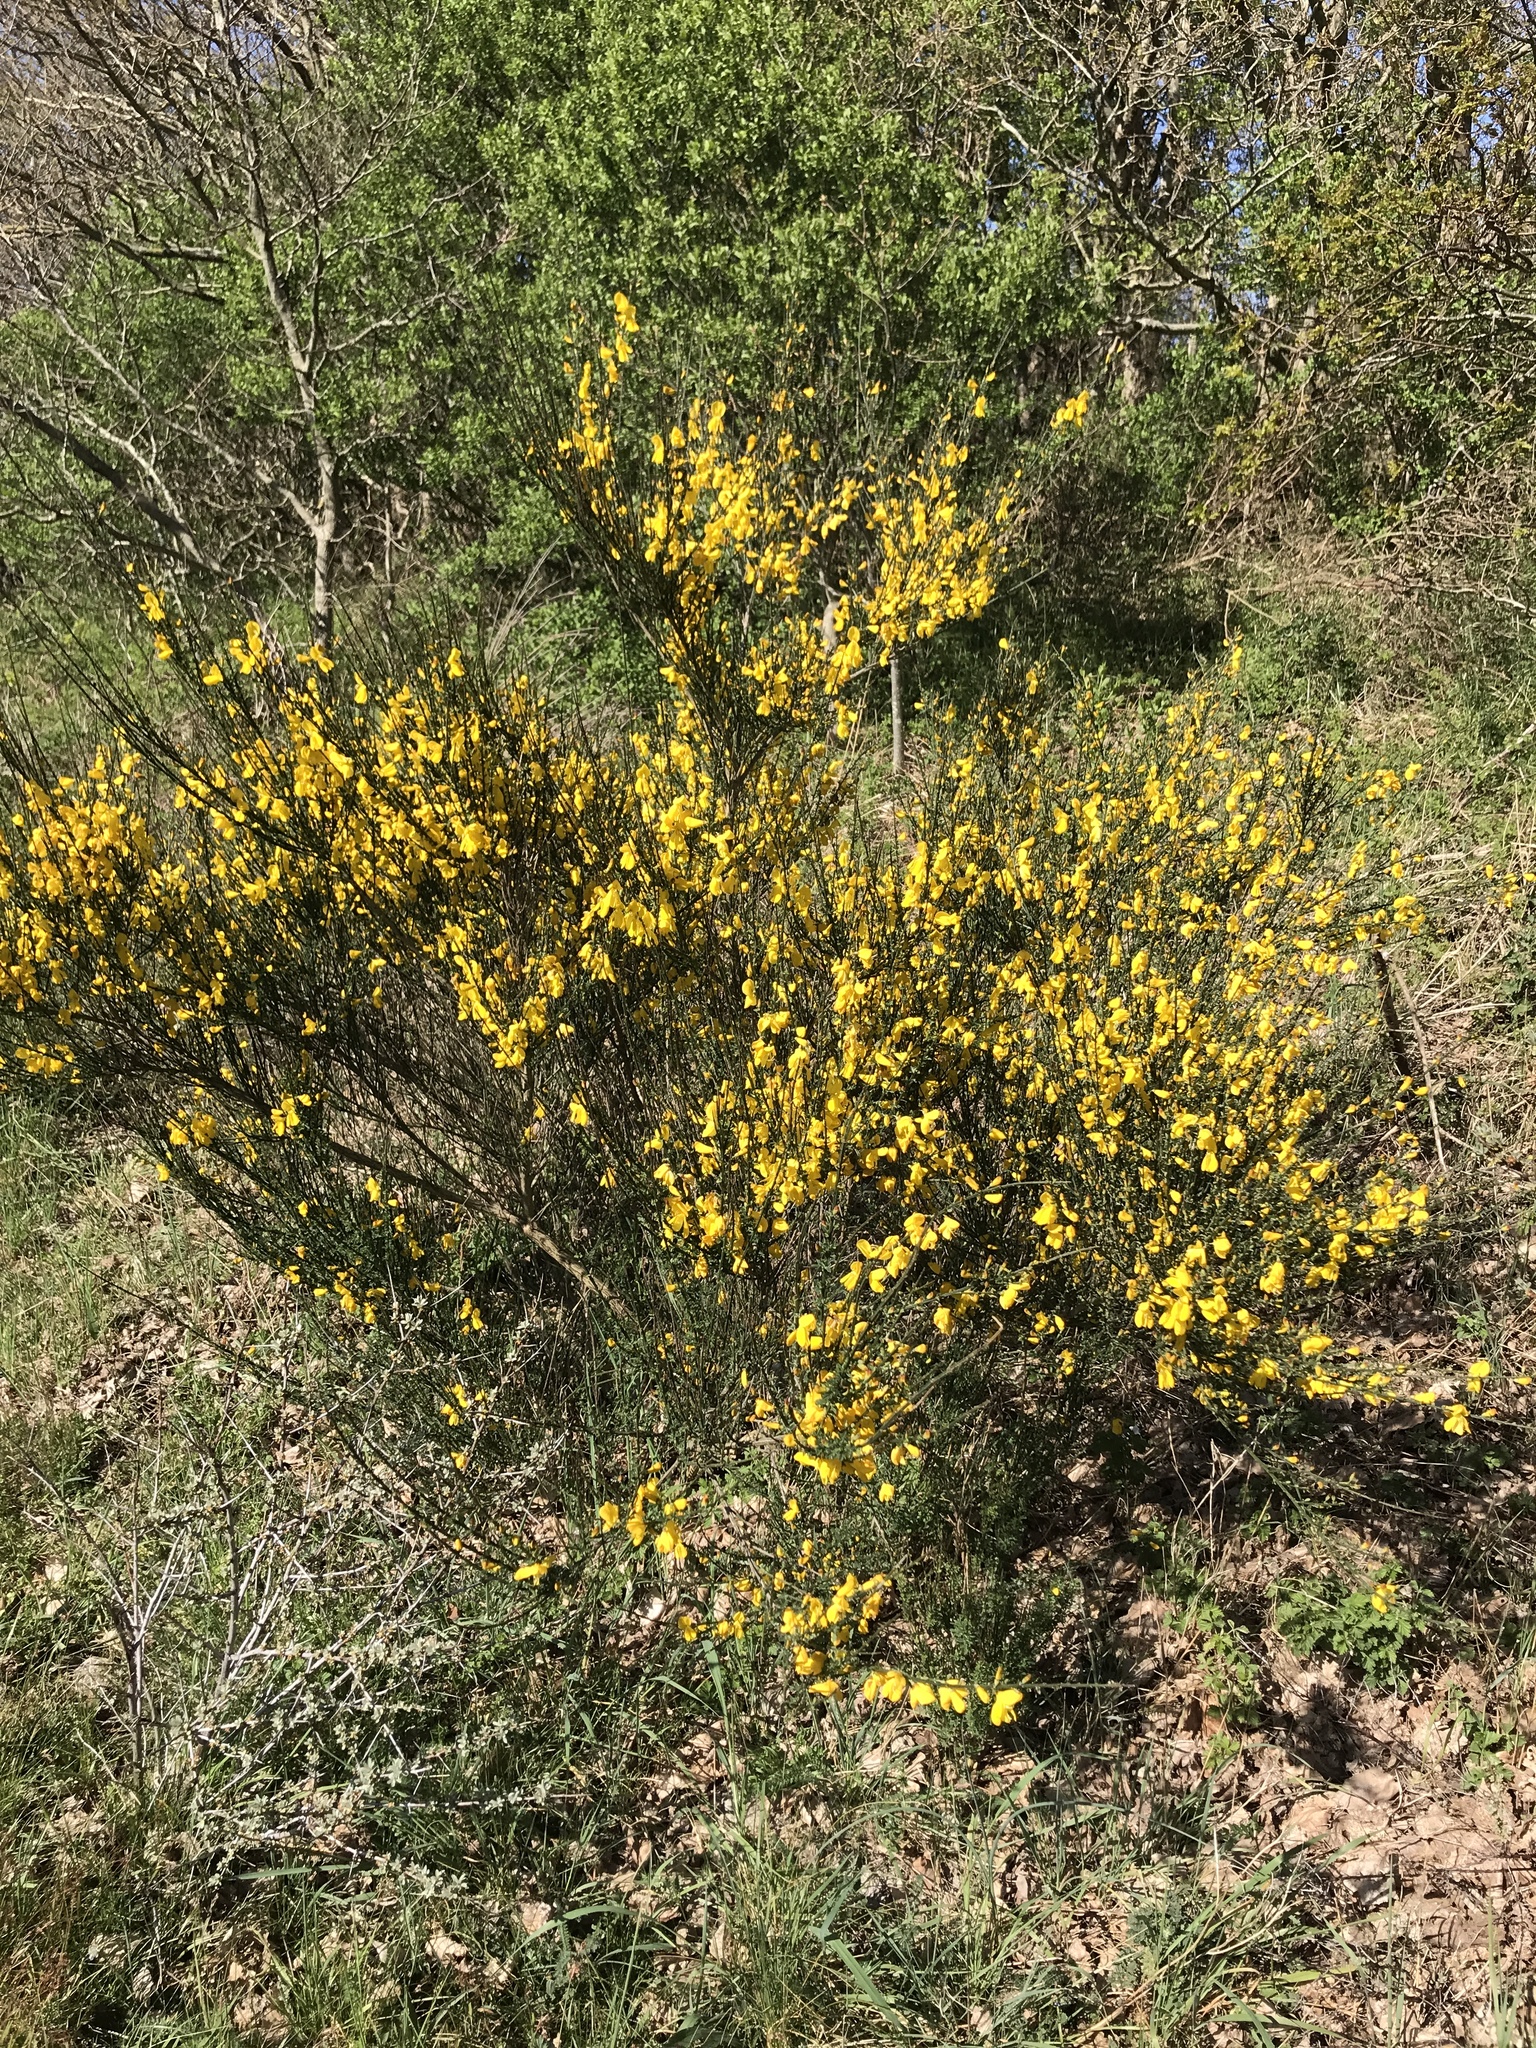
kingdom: Plantae
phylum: Tracheophyta
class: Magnoliopsida
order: Fabales
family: Fabaceae
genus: Cytisus
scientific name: Cytisus scoparius
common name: Scotch broom
